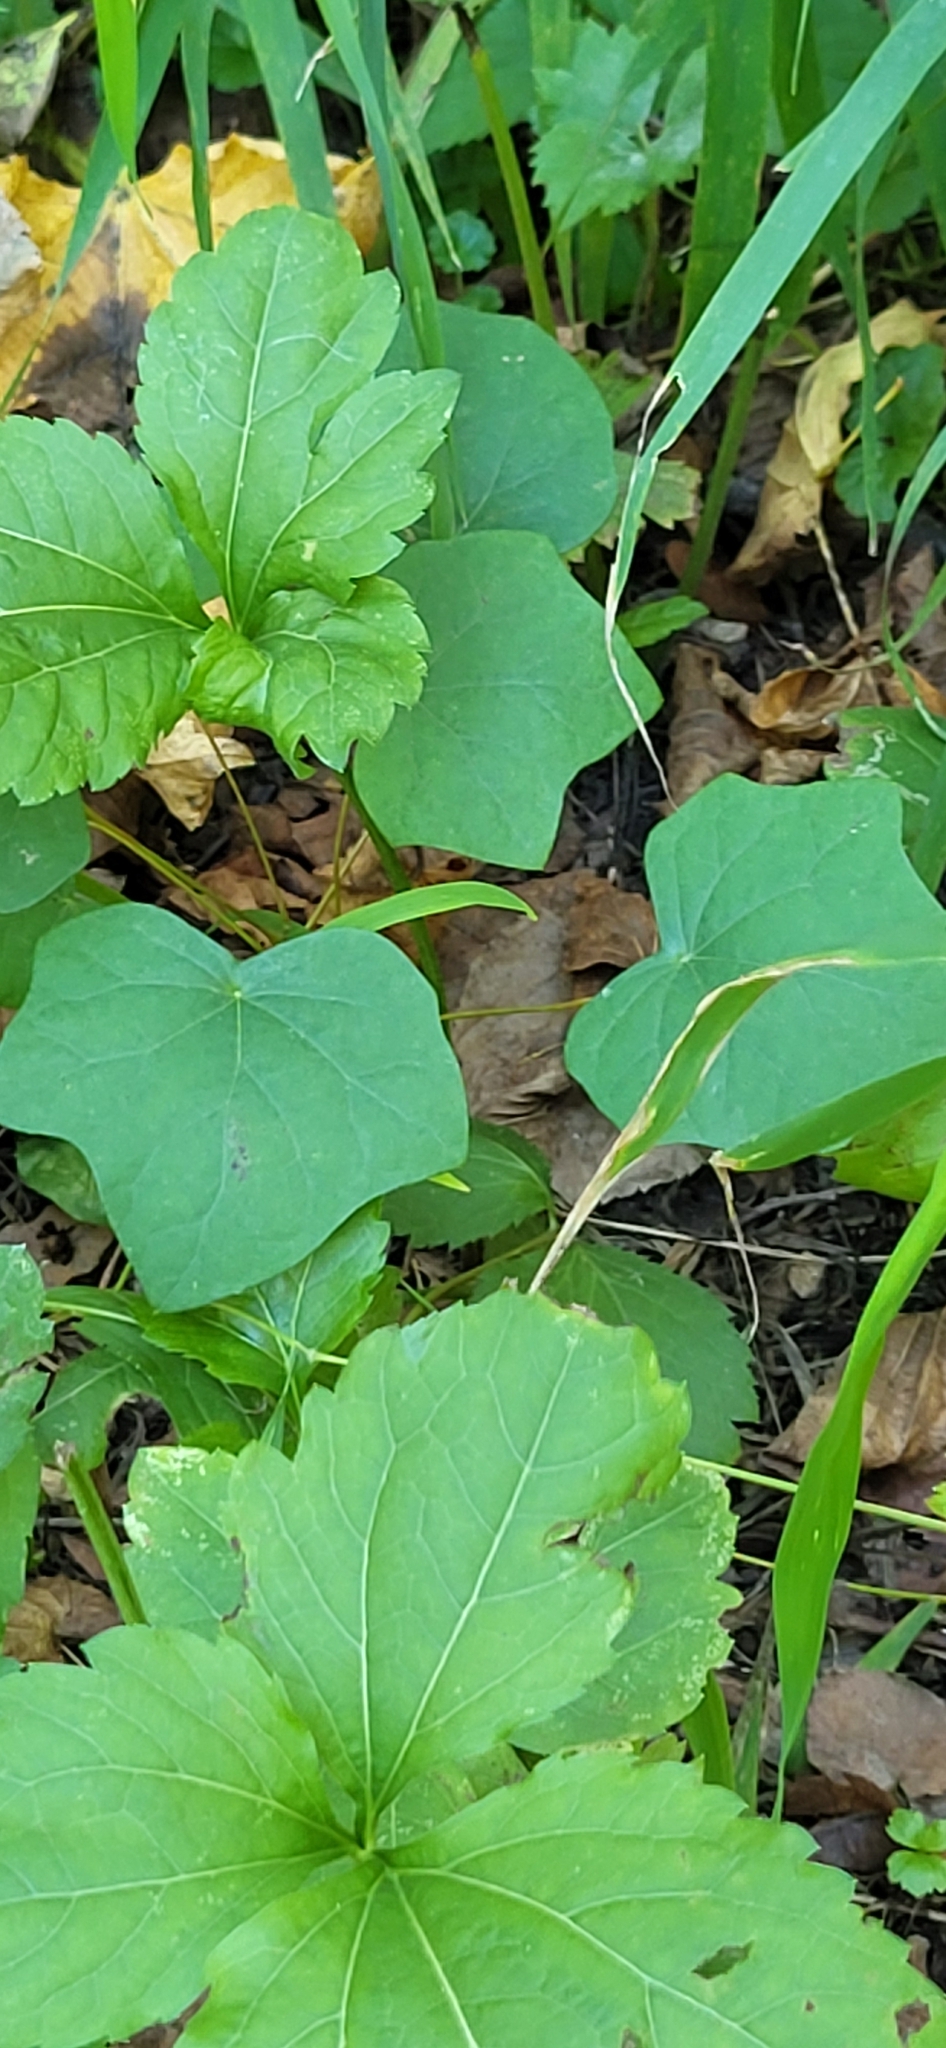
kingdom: Plantae
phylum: Tracheophyta
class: Magnoliopsida
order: Ranunculales
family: Menispermaceae
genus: Menispermum
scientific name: Menispermum canadense
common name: Moonseed
